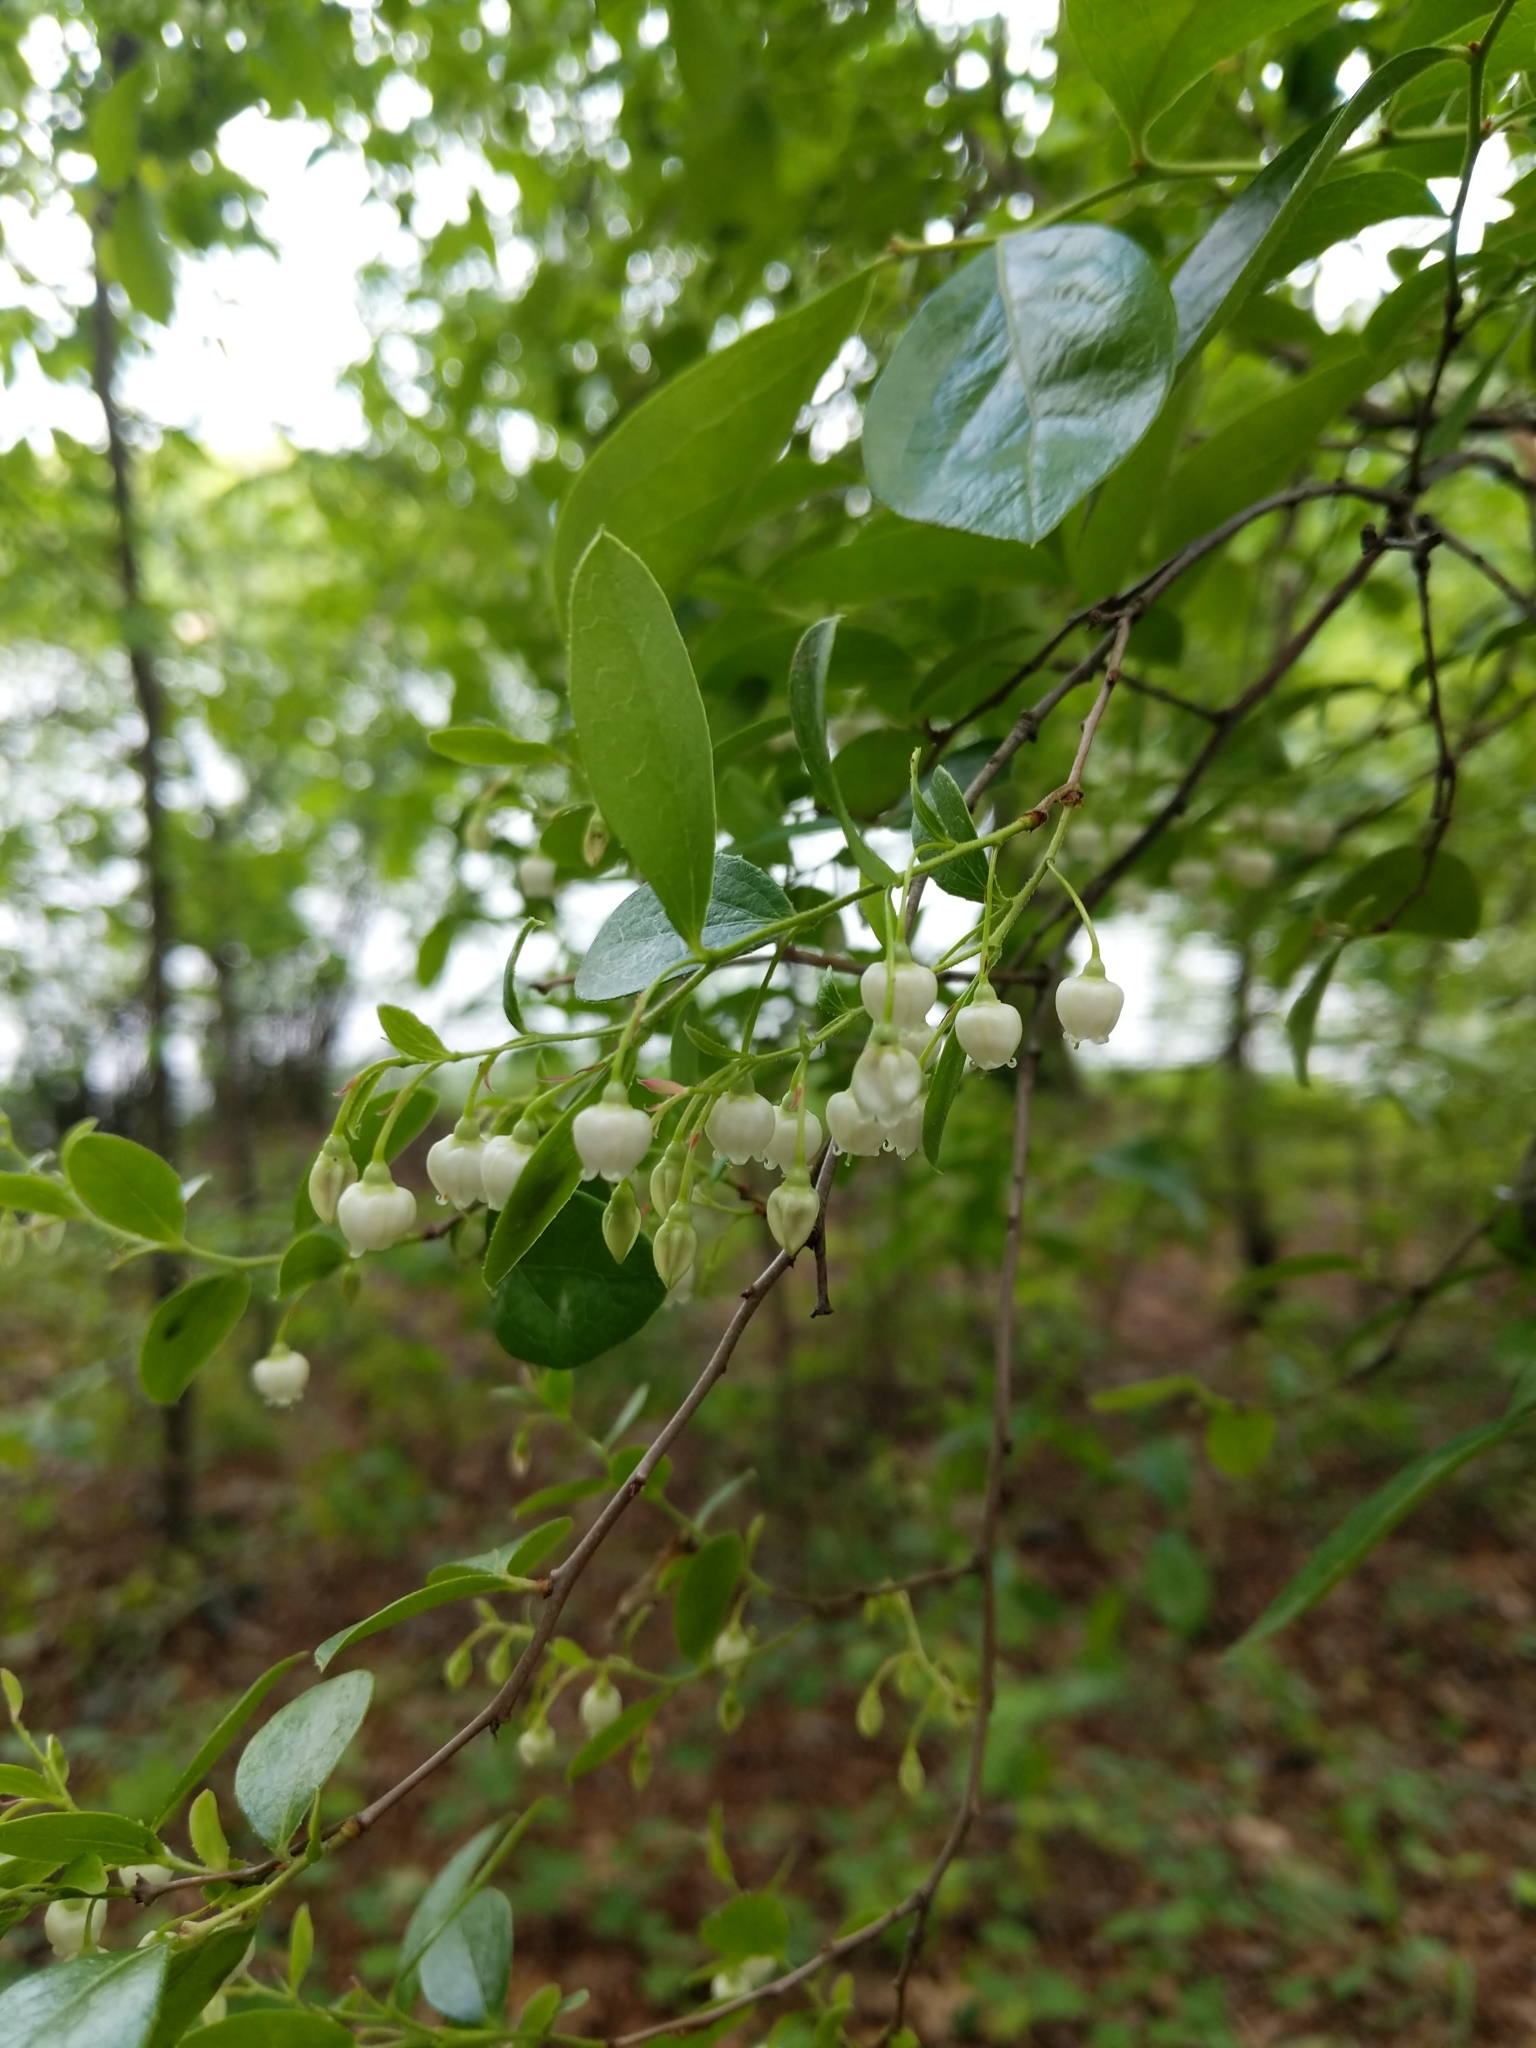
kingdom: Plantae
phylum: Tracheophyta
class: Magnoliopsida
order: Ericales
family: Ericaceae
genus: Vaccinium
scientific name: Vaccinium arboreum
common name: Farkleberry
